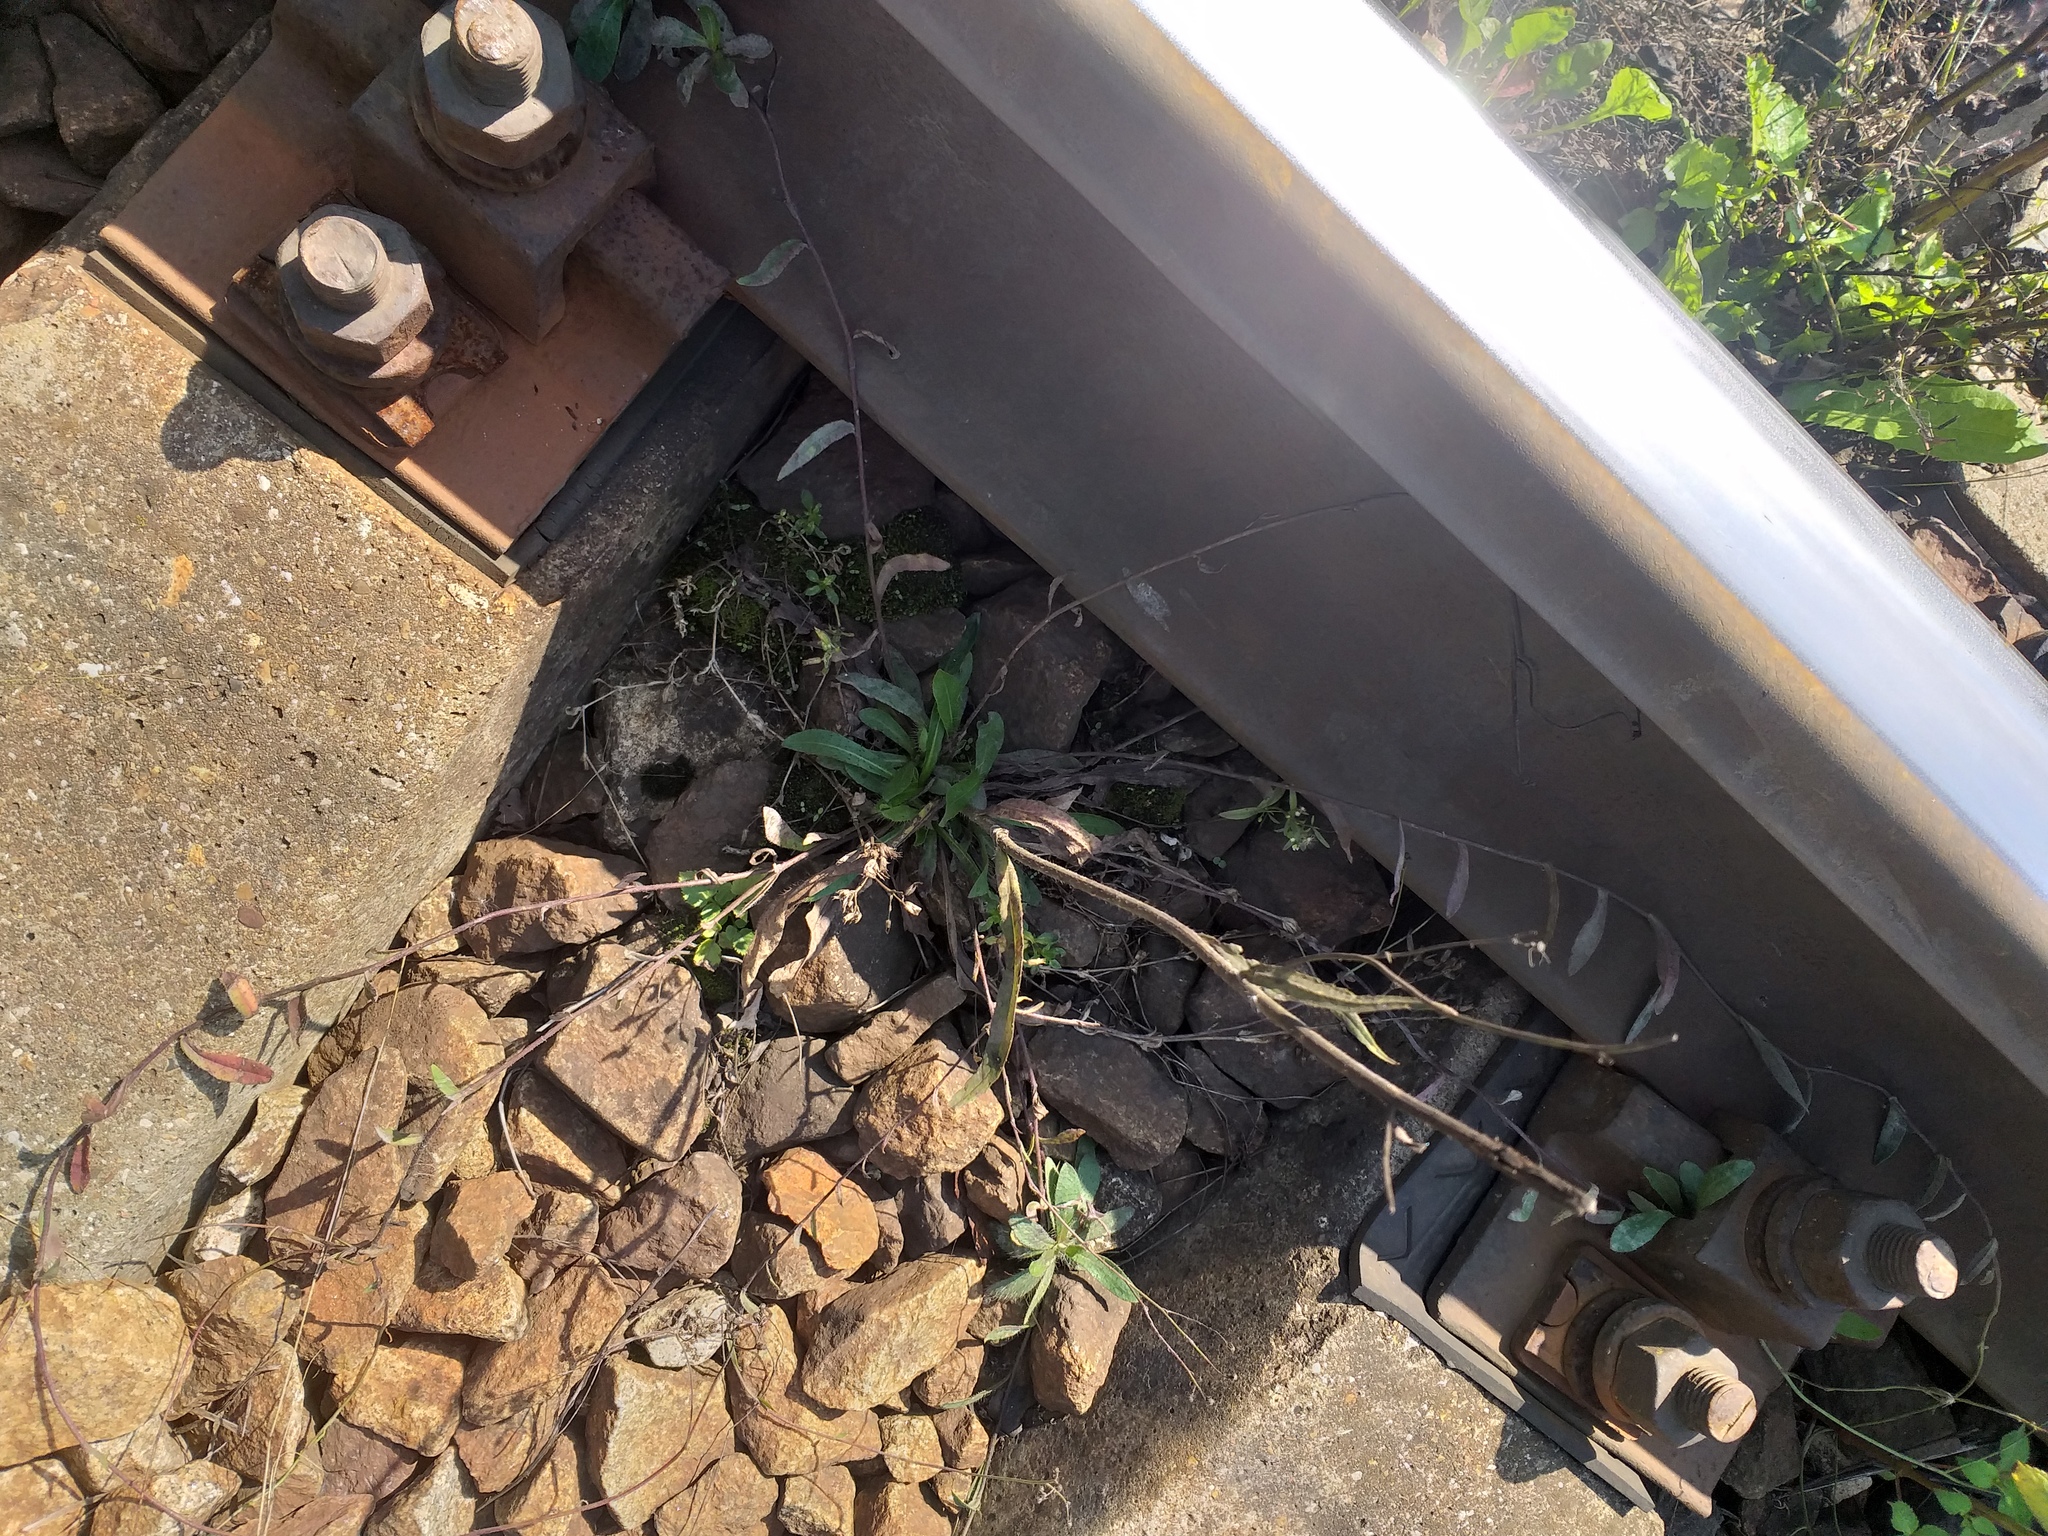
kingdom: Plantae
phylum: Tracheophyta
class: Magnoliopsida
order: Asterales
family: Asteraceae
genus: Pilosella
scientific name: Pilosella
